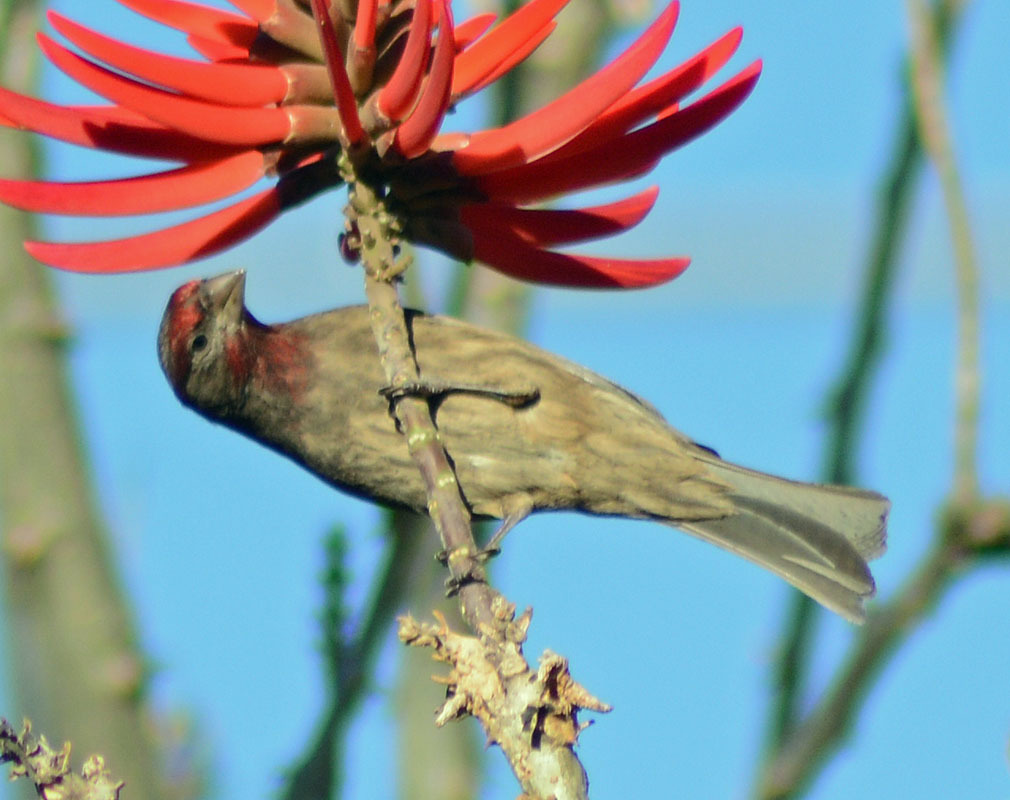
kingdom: Animalia
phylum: Chordata
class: Aves
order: Passeriformes
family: Fringillidae
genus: Haemorhous
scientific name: Haemorhous mexicanus
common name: House finch
